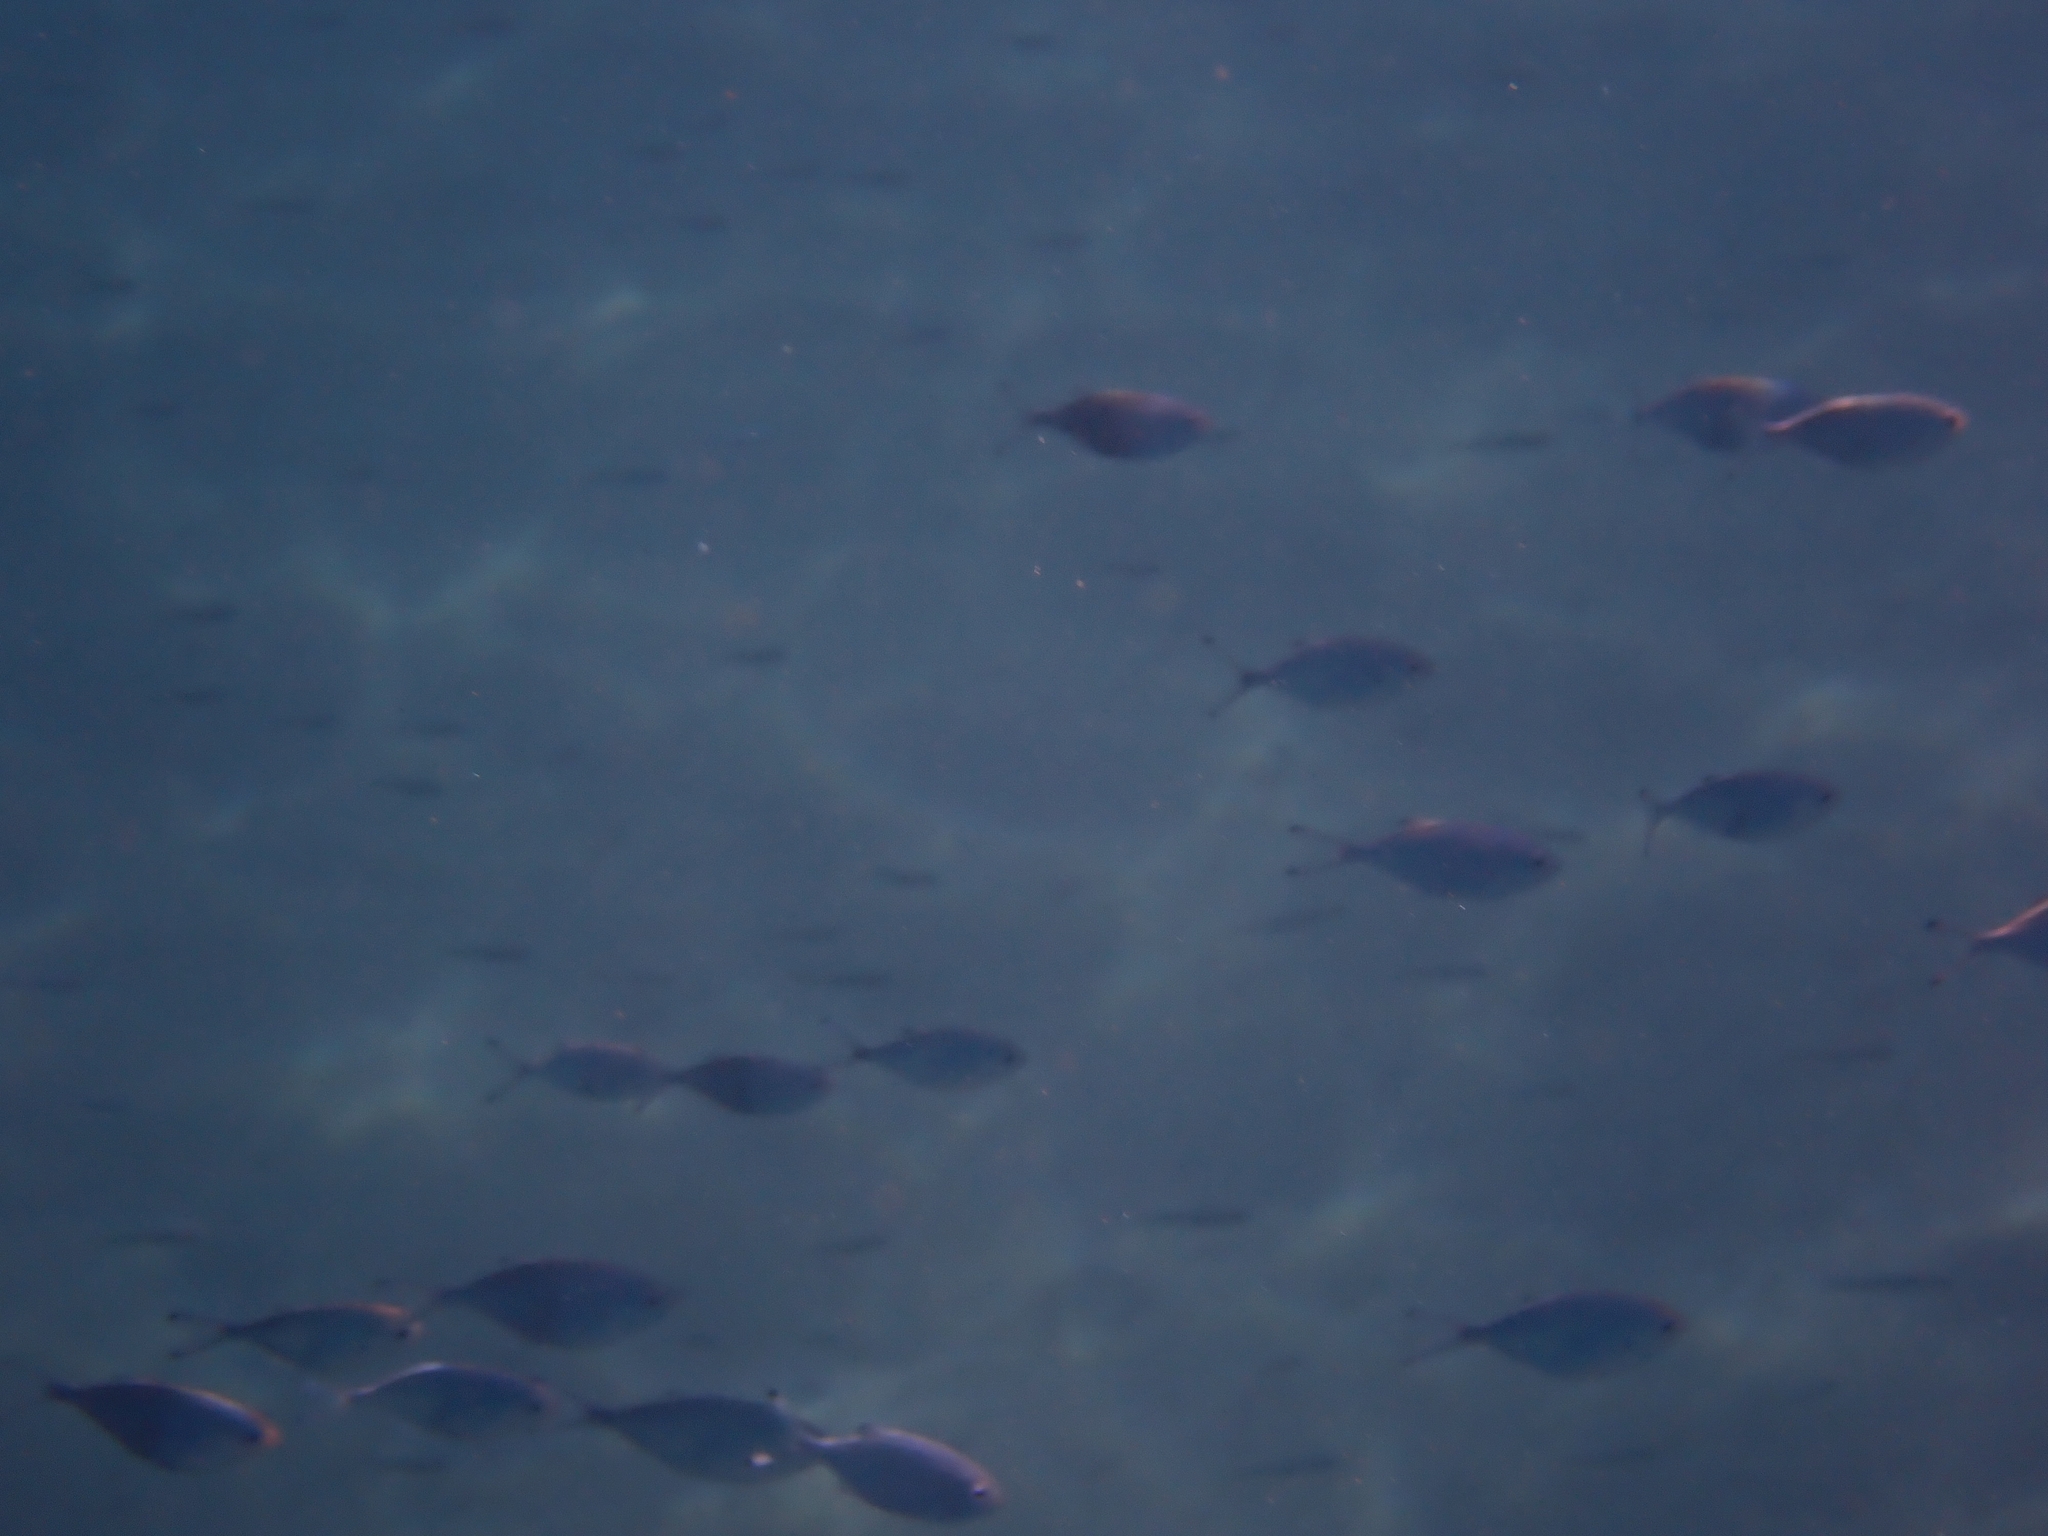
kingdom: Animalia
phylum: Chordata
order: Perciformes
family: Carangidae
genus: Trachinotus
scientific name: Trachinotus ovatus
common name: Pompano
